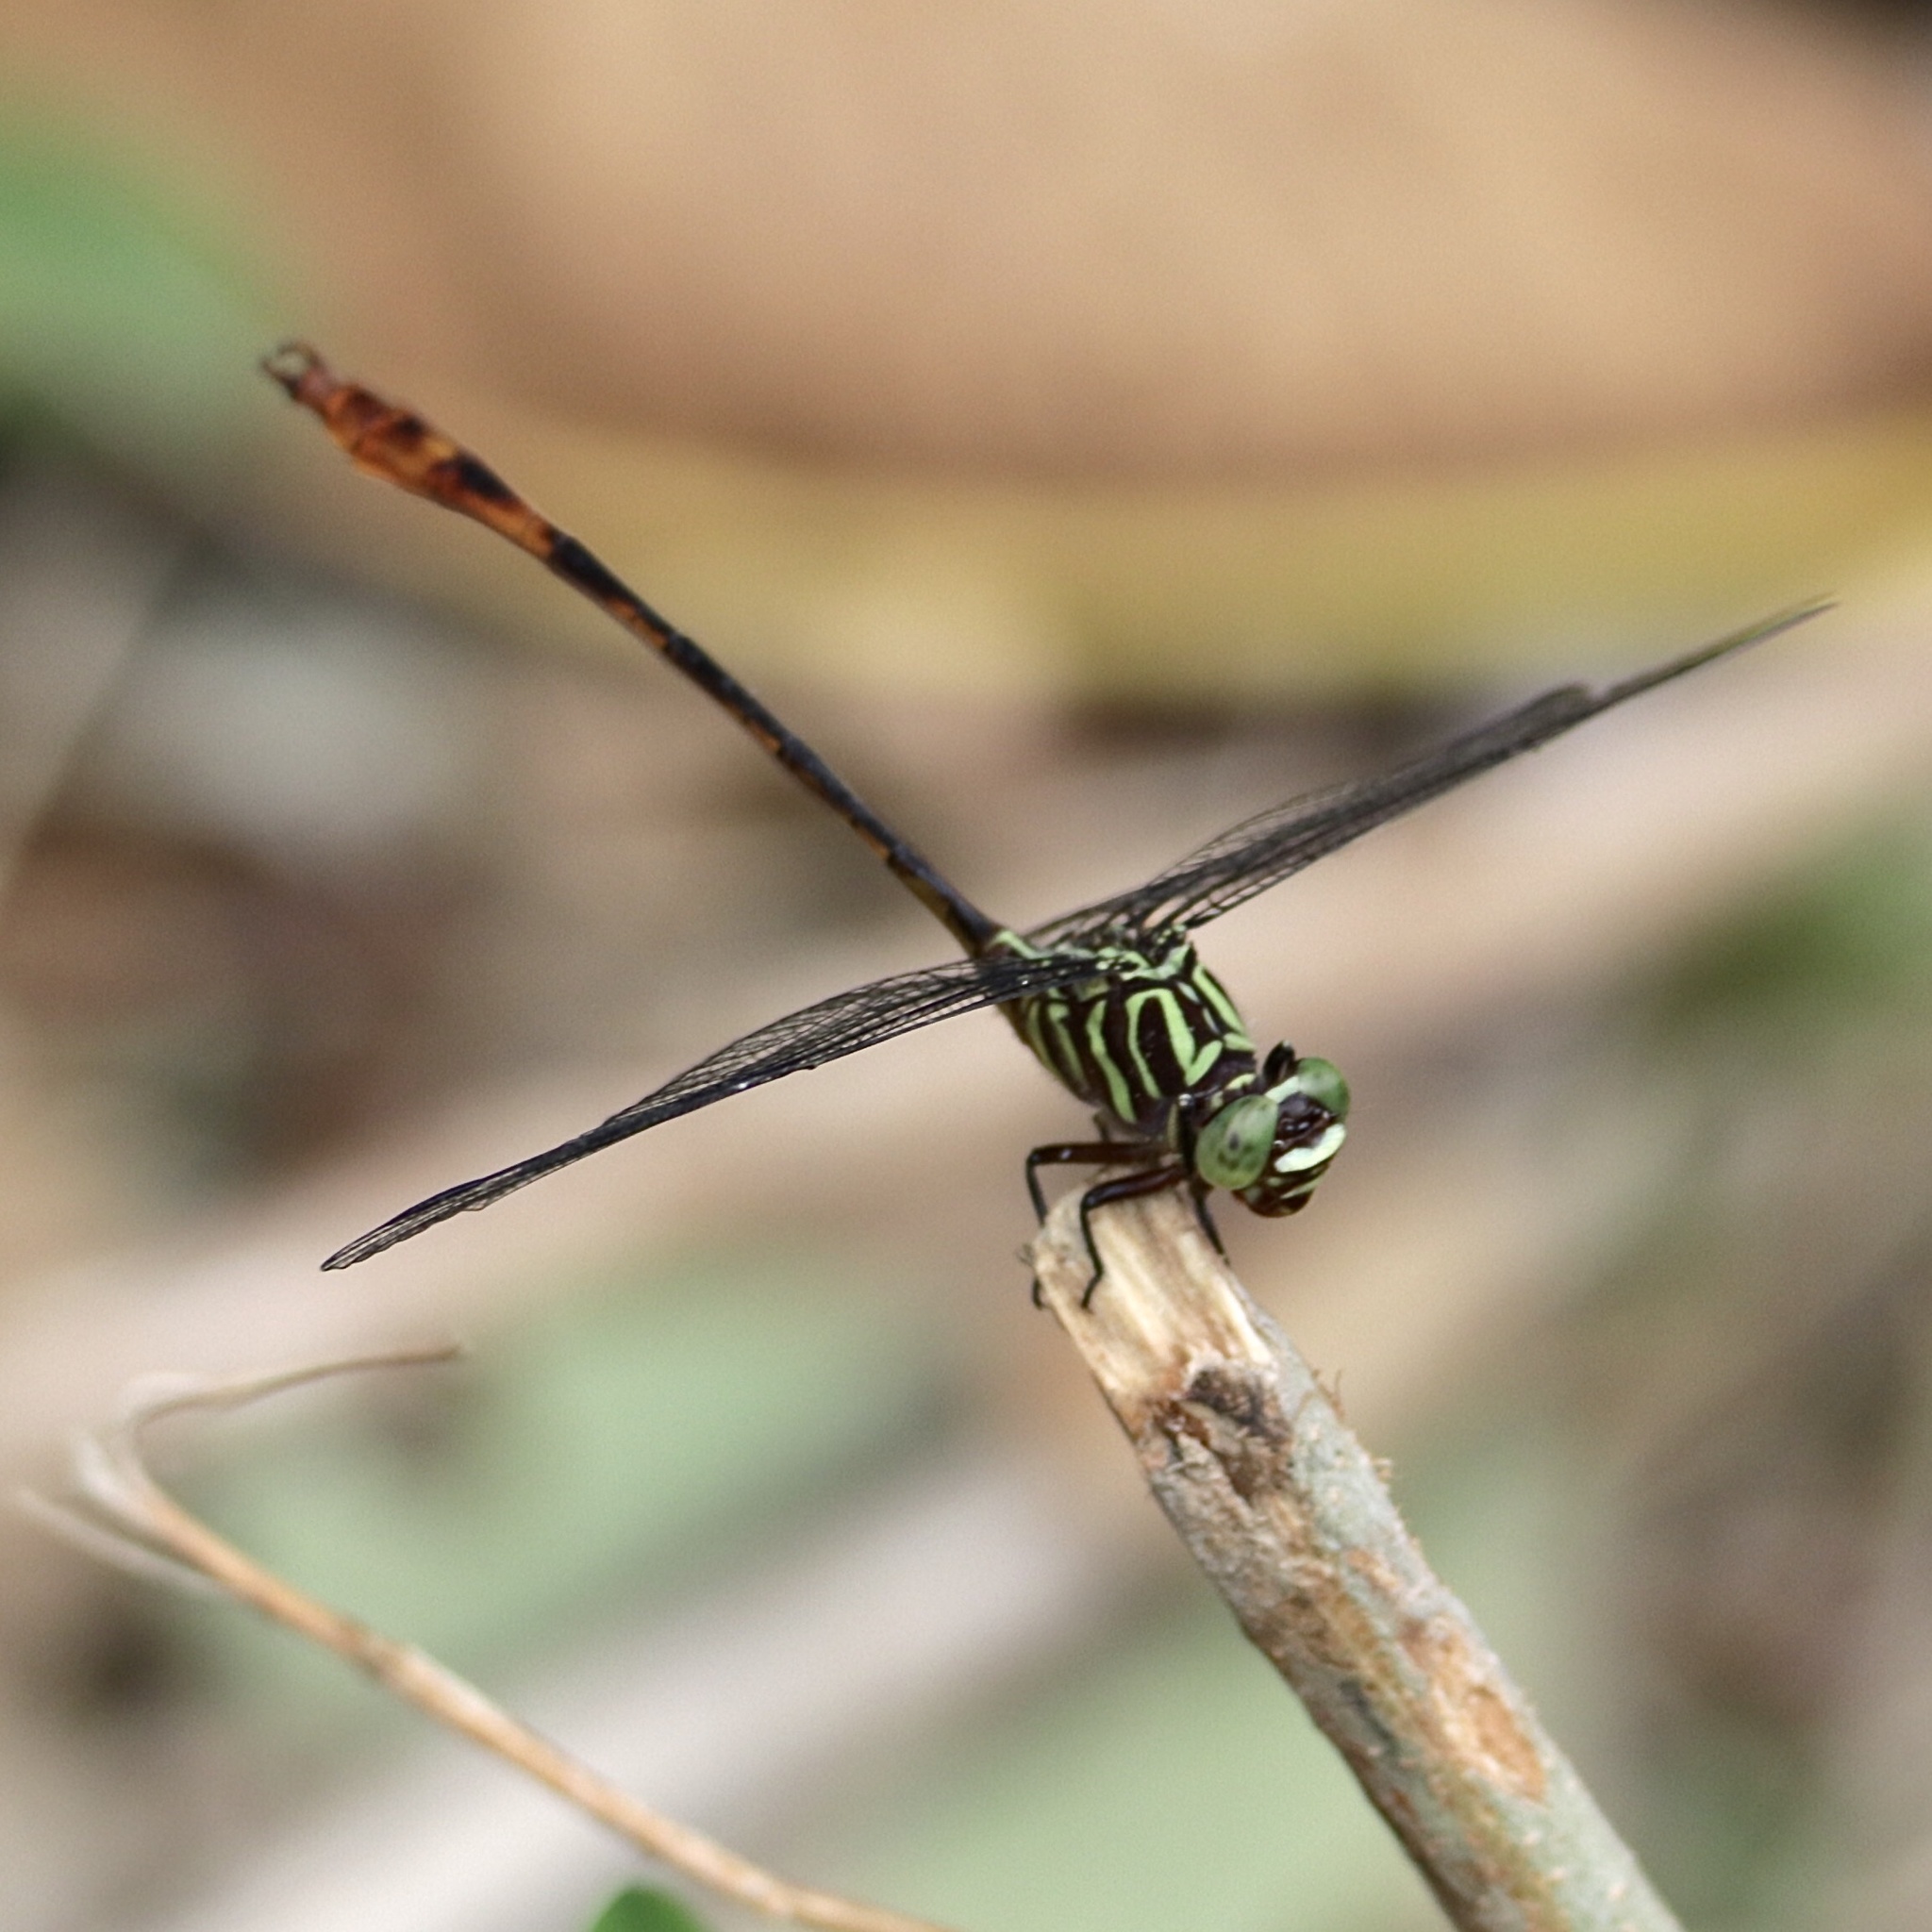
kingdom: Animalia
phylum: Arthropoda
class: Insecta
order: Odonata
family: Gomphidae
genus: Aphylla
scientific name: Aphylla angustifolia
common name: Broad-striped forceptail
